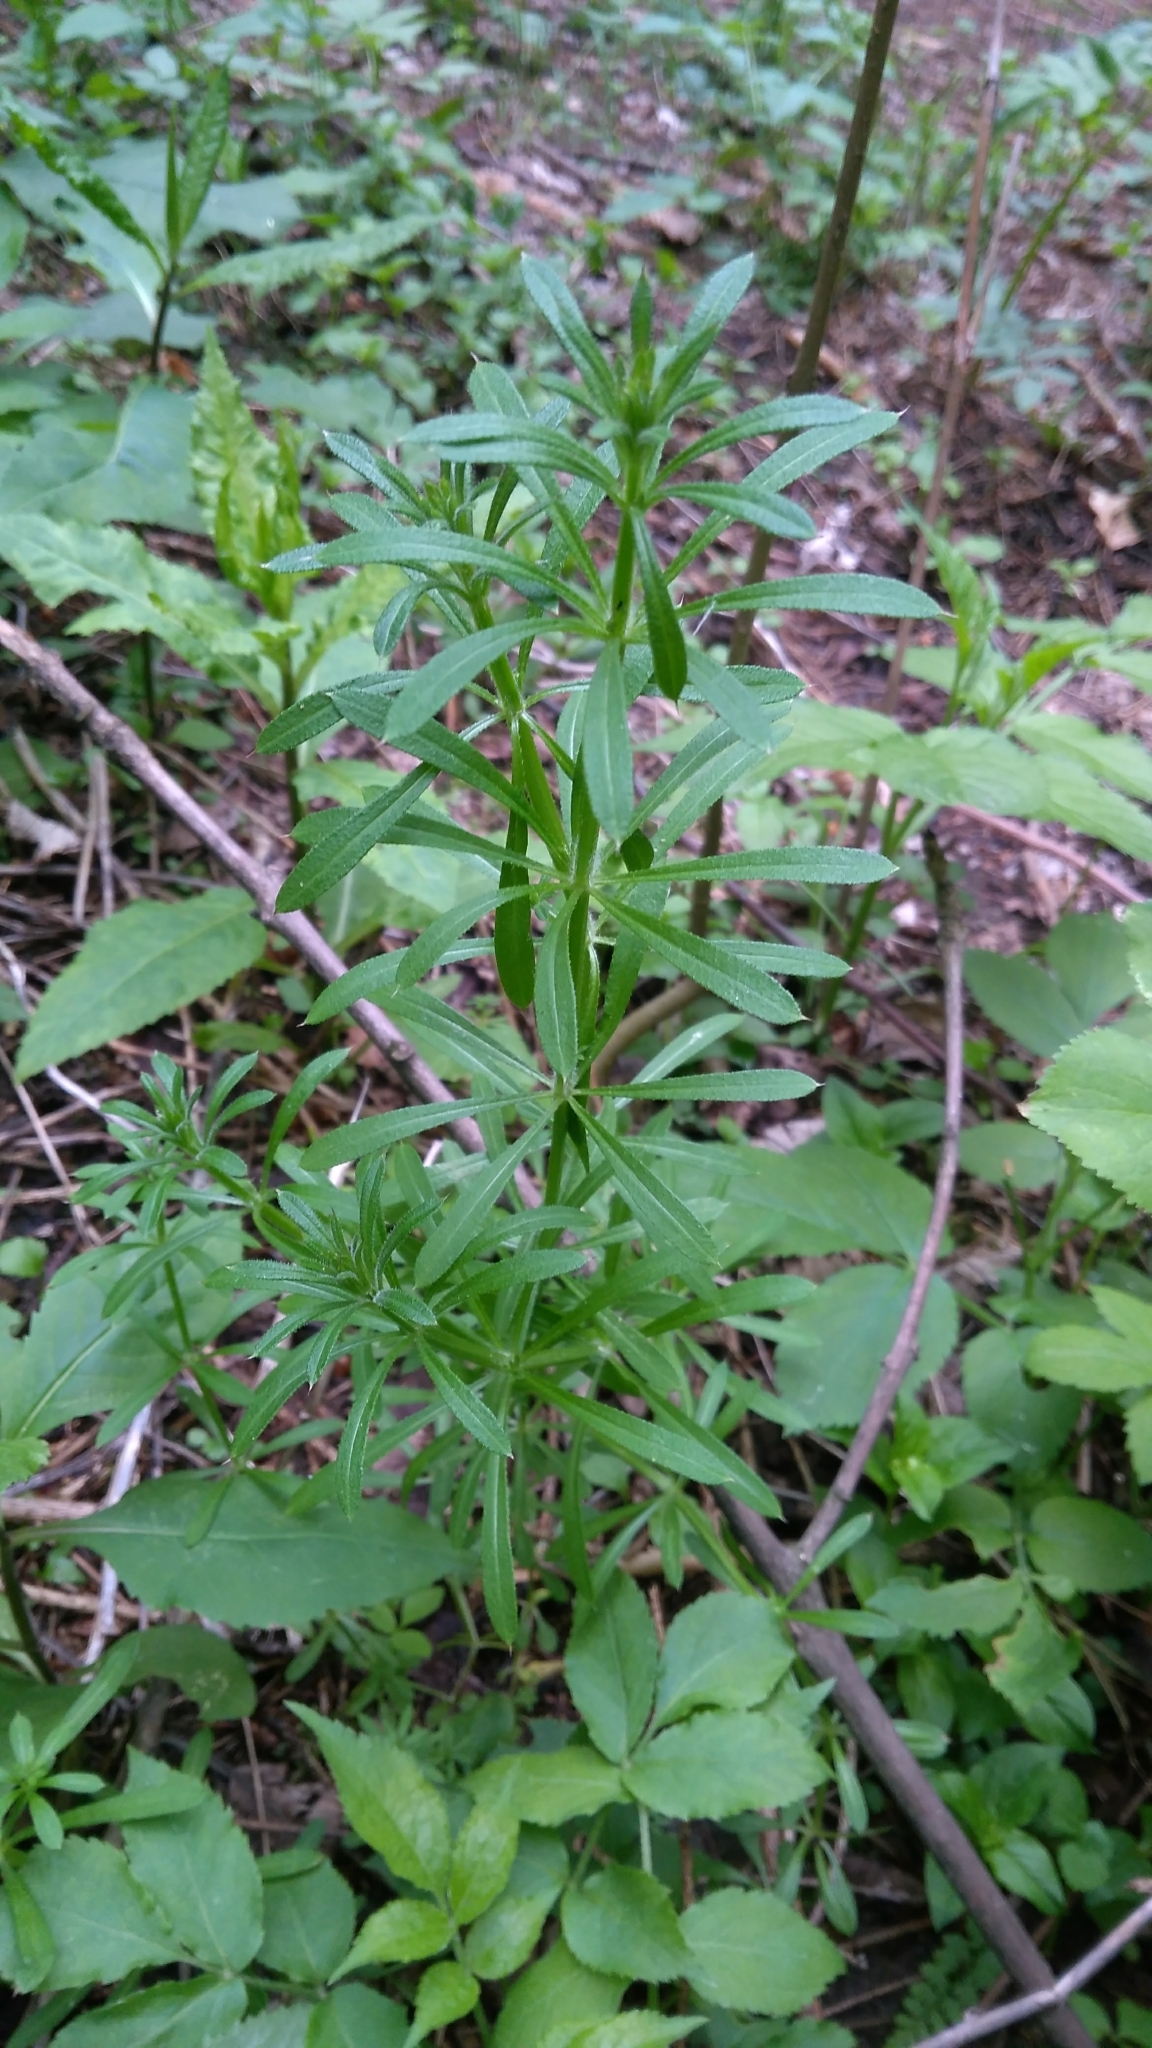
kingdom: Plantae
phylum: Tracheophyta
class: Magnoliopsida
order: Gentianales
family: Rubiaceae
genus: Galium
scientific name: Galium aparine
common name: Cleavers
